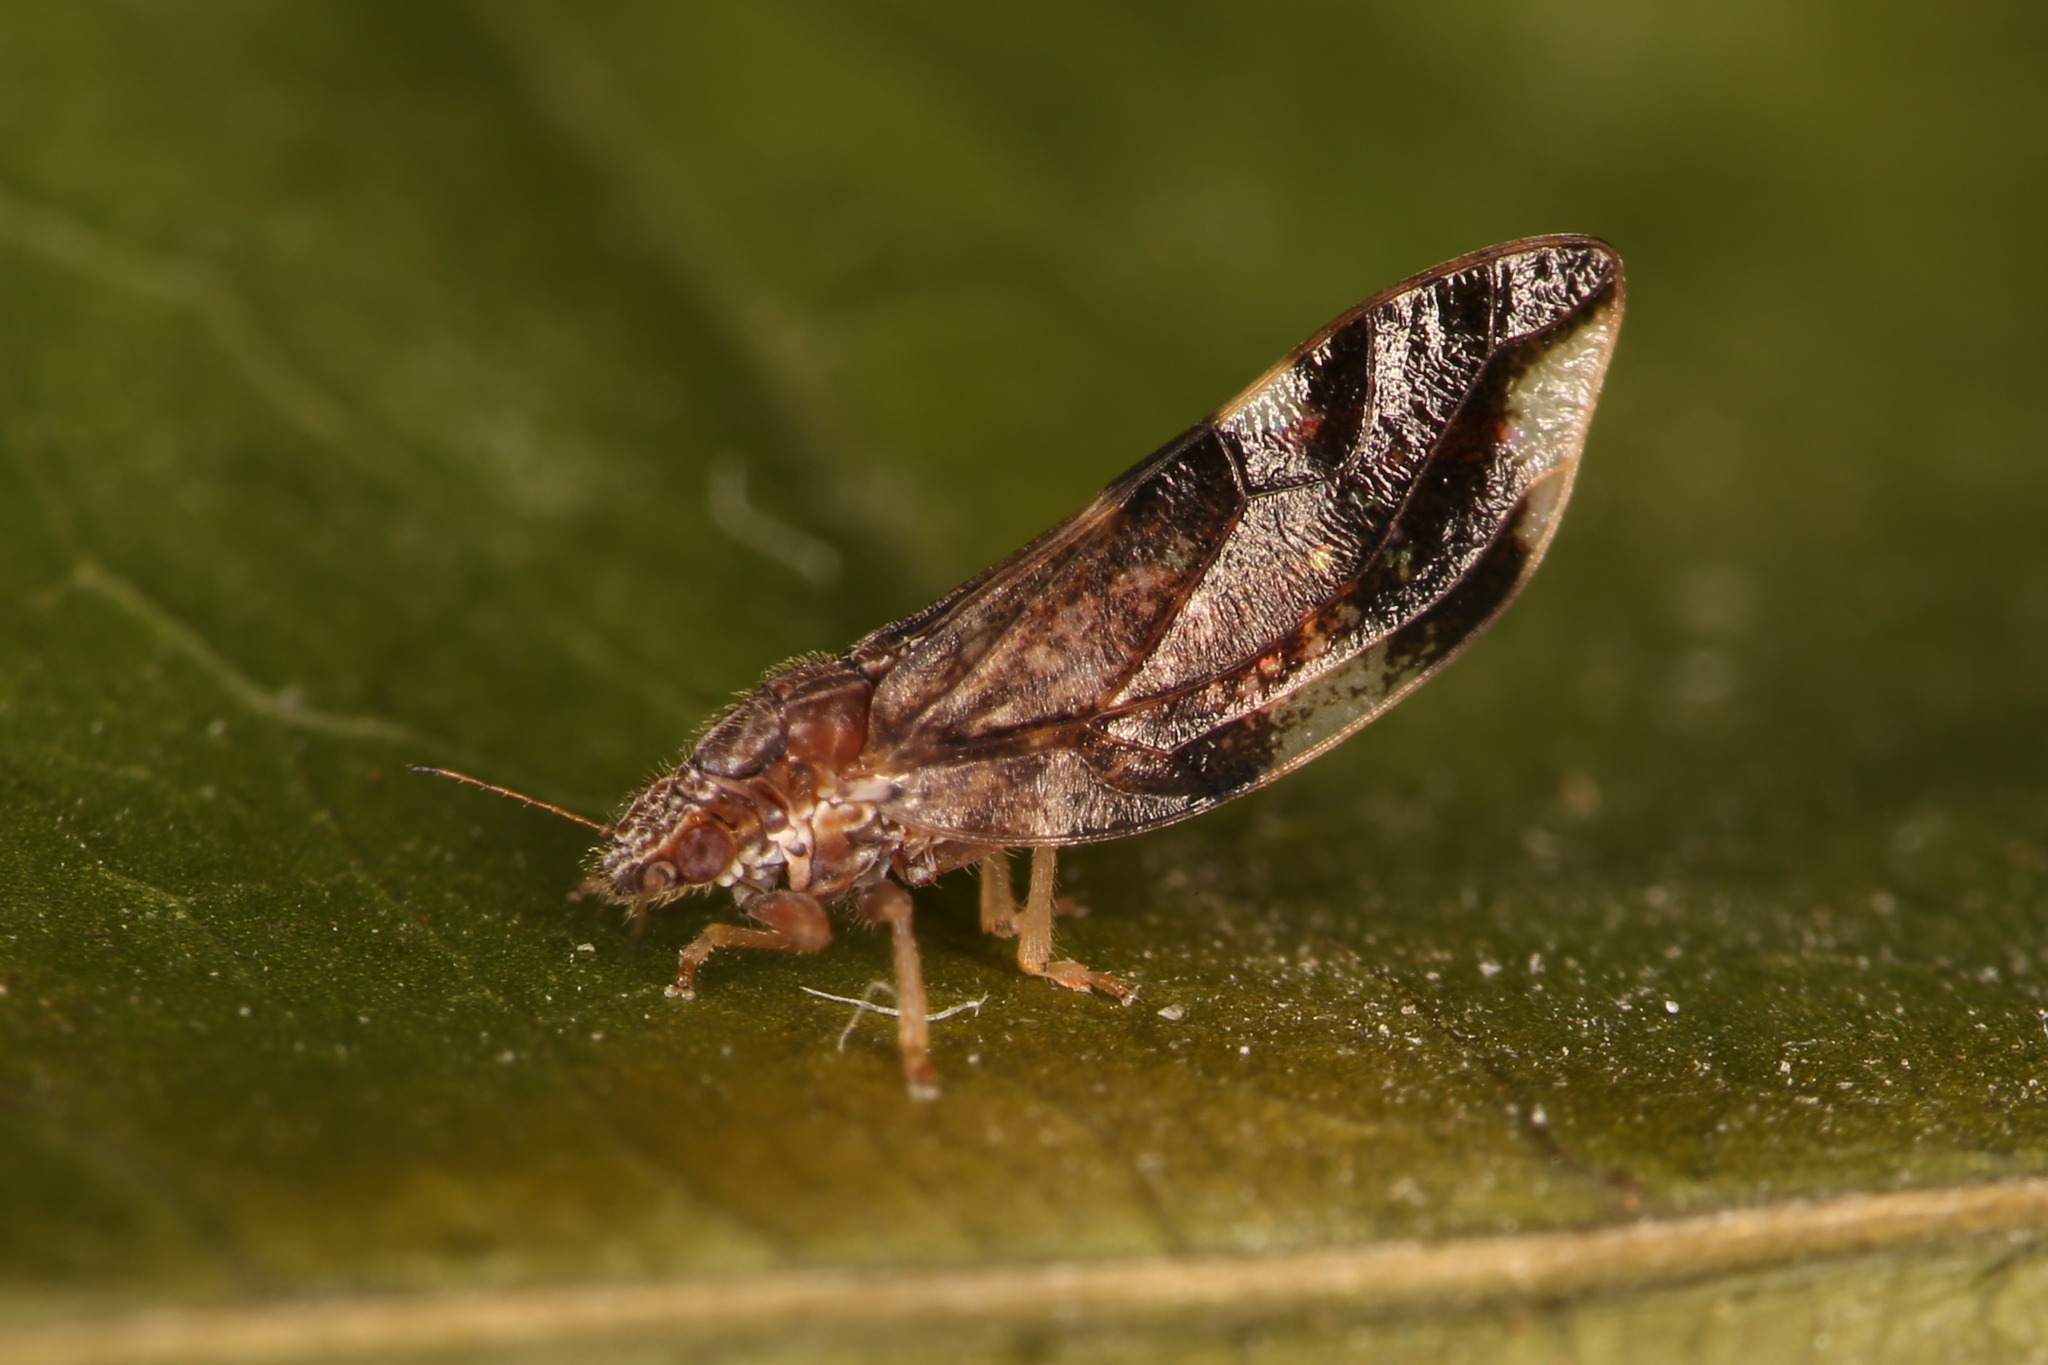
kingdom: Animalia
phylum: Arthropoda
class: Insecta
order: Hemiptera
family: Triozidae
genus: Trichochermes
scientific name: Trichochermes walkeri
